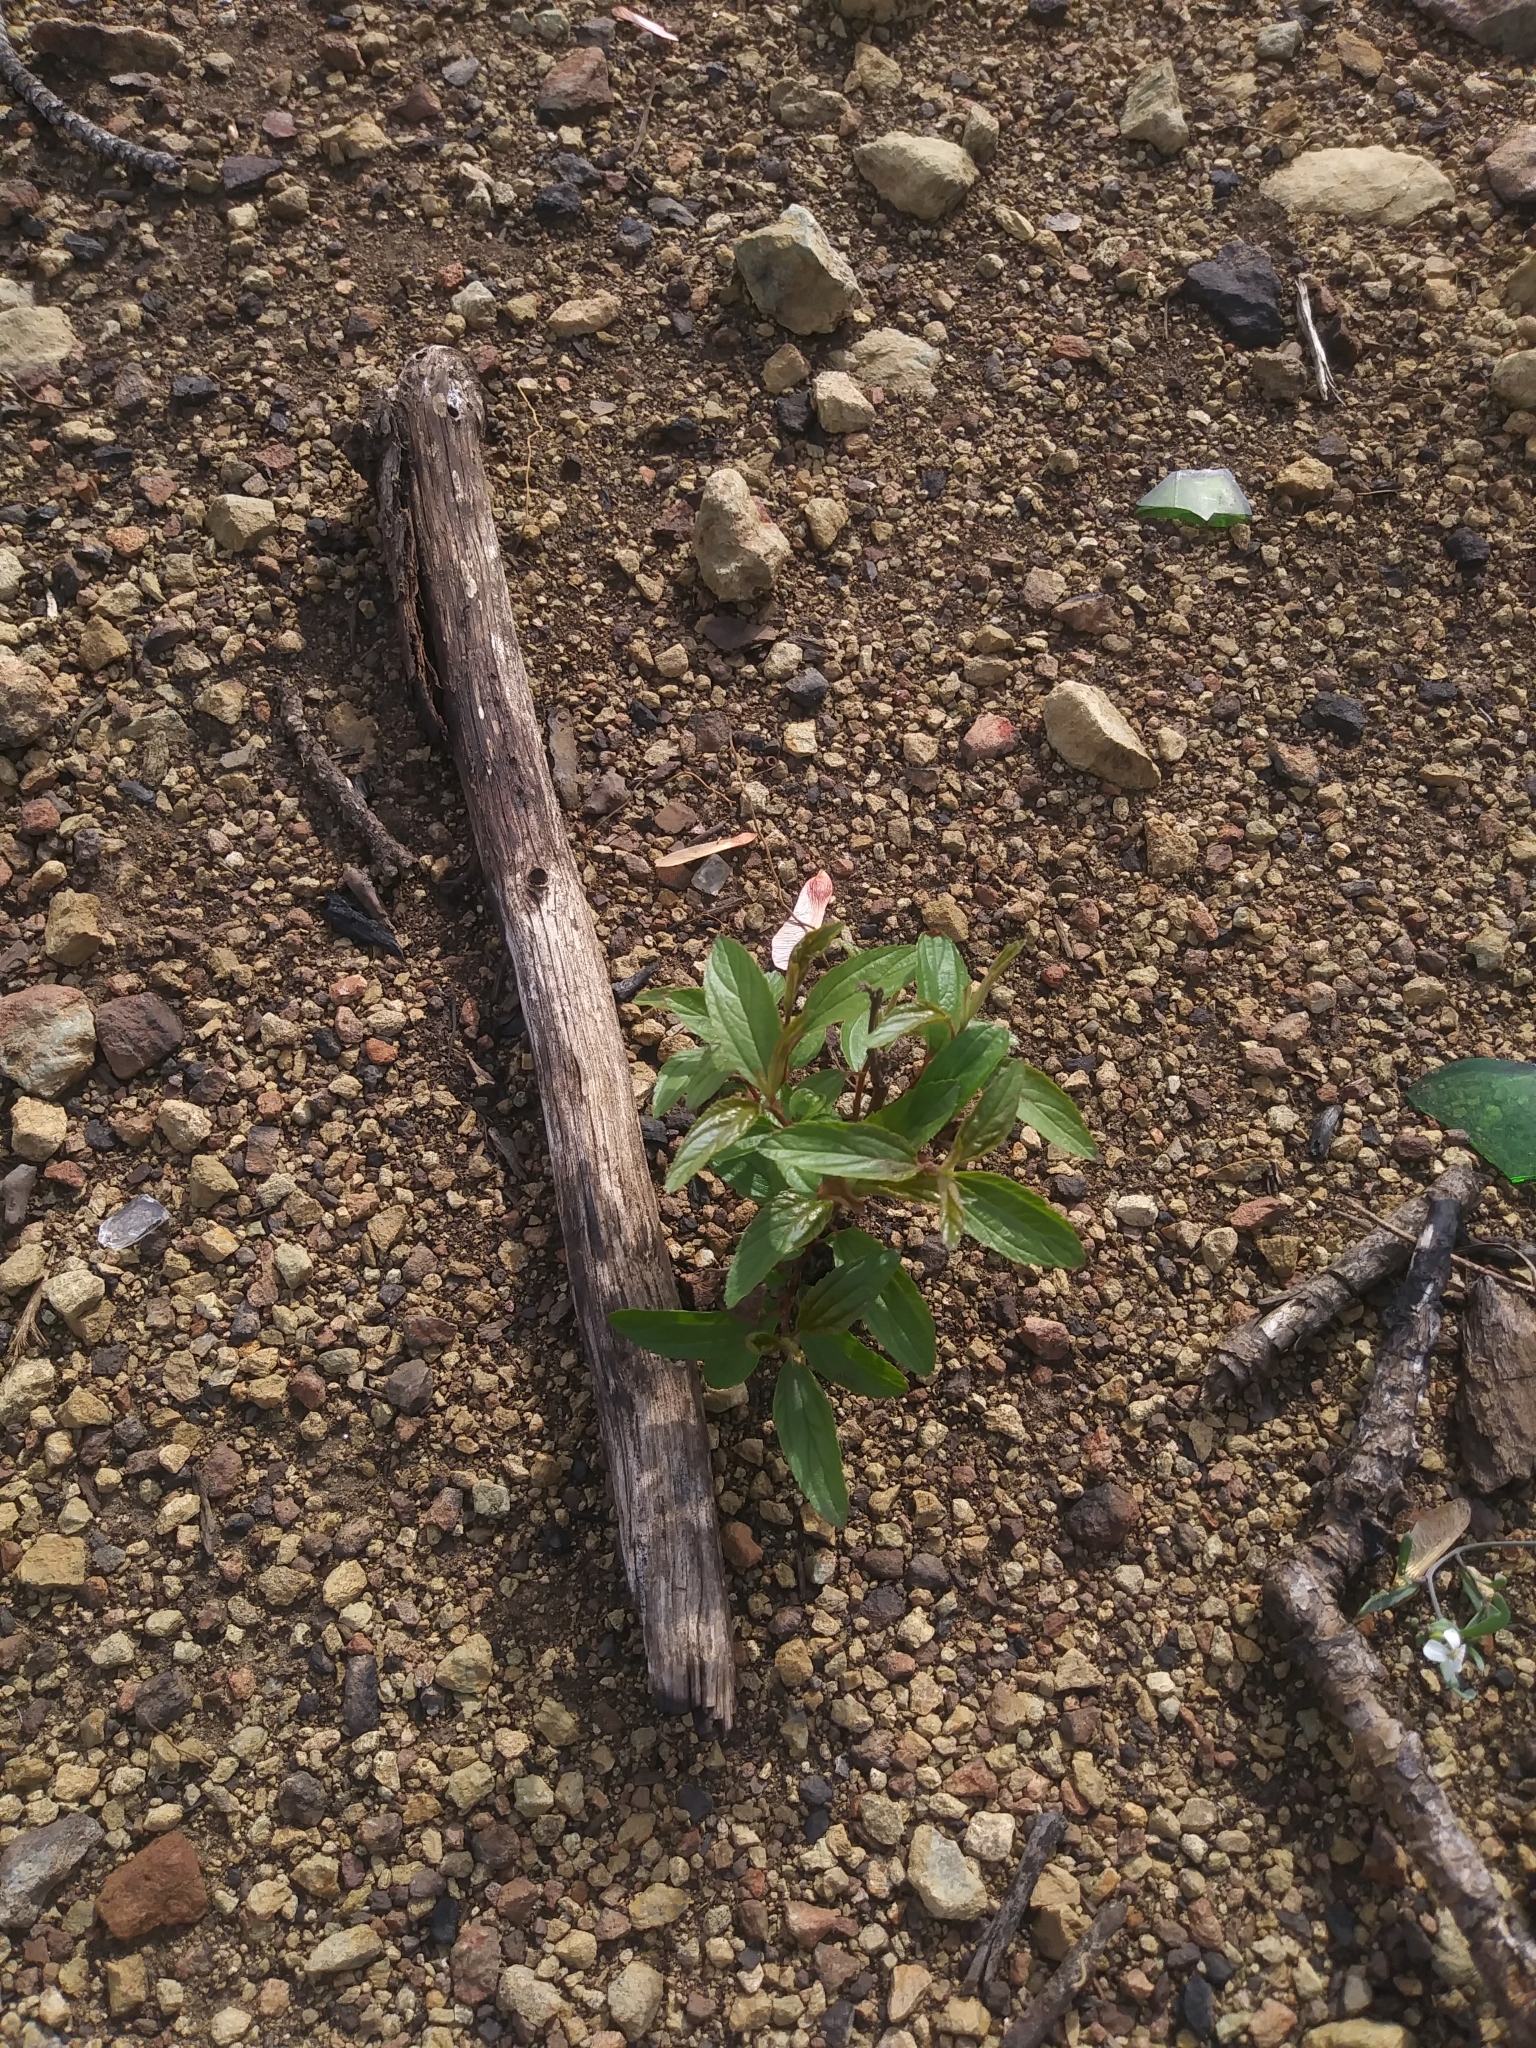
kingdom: Plantae
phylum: Tracheophyta
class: Magnoliopsida
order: Rosales
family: Rhamnaceae
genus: Ceanothus
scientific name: Ceanothus americanus
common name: Redroot
